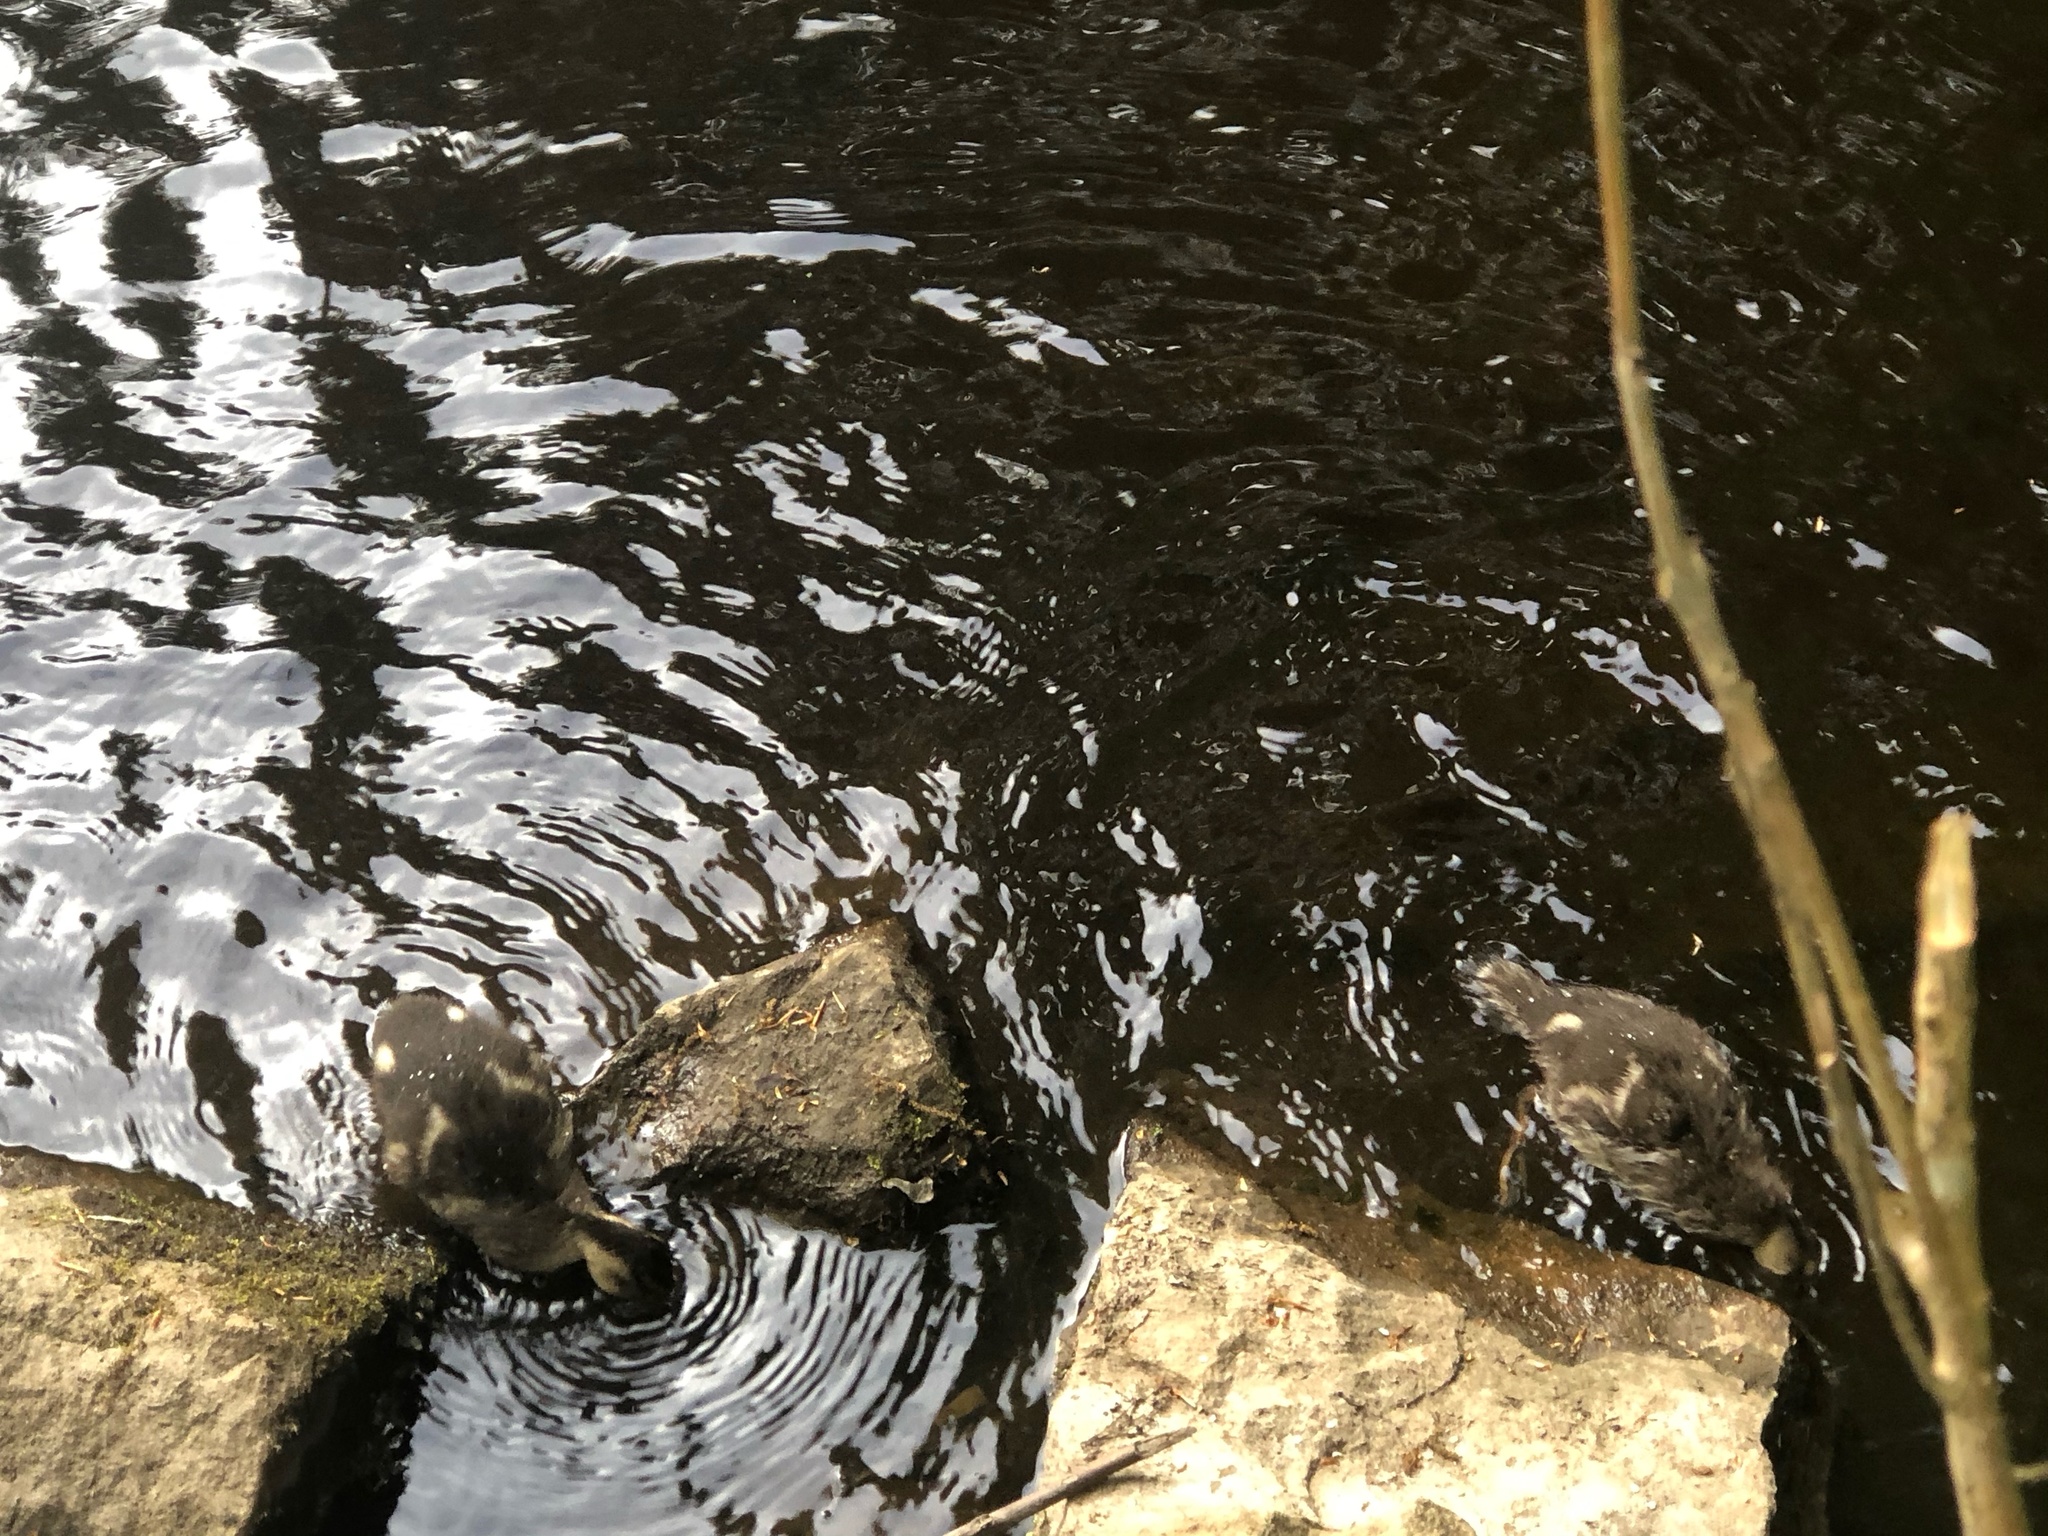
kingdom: Animalia
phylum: Chordata
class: Aves
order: Anseriformes
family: Anatidae
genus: Anas
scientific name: Anas platyrhynchos
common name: Mallard
